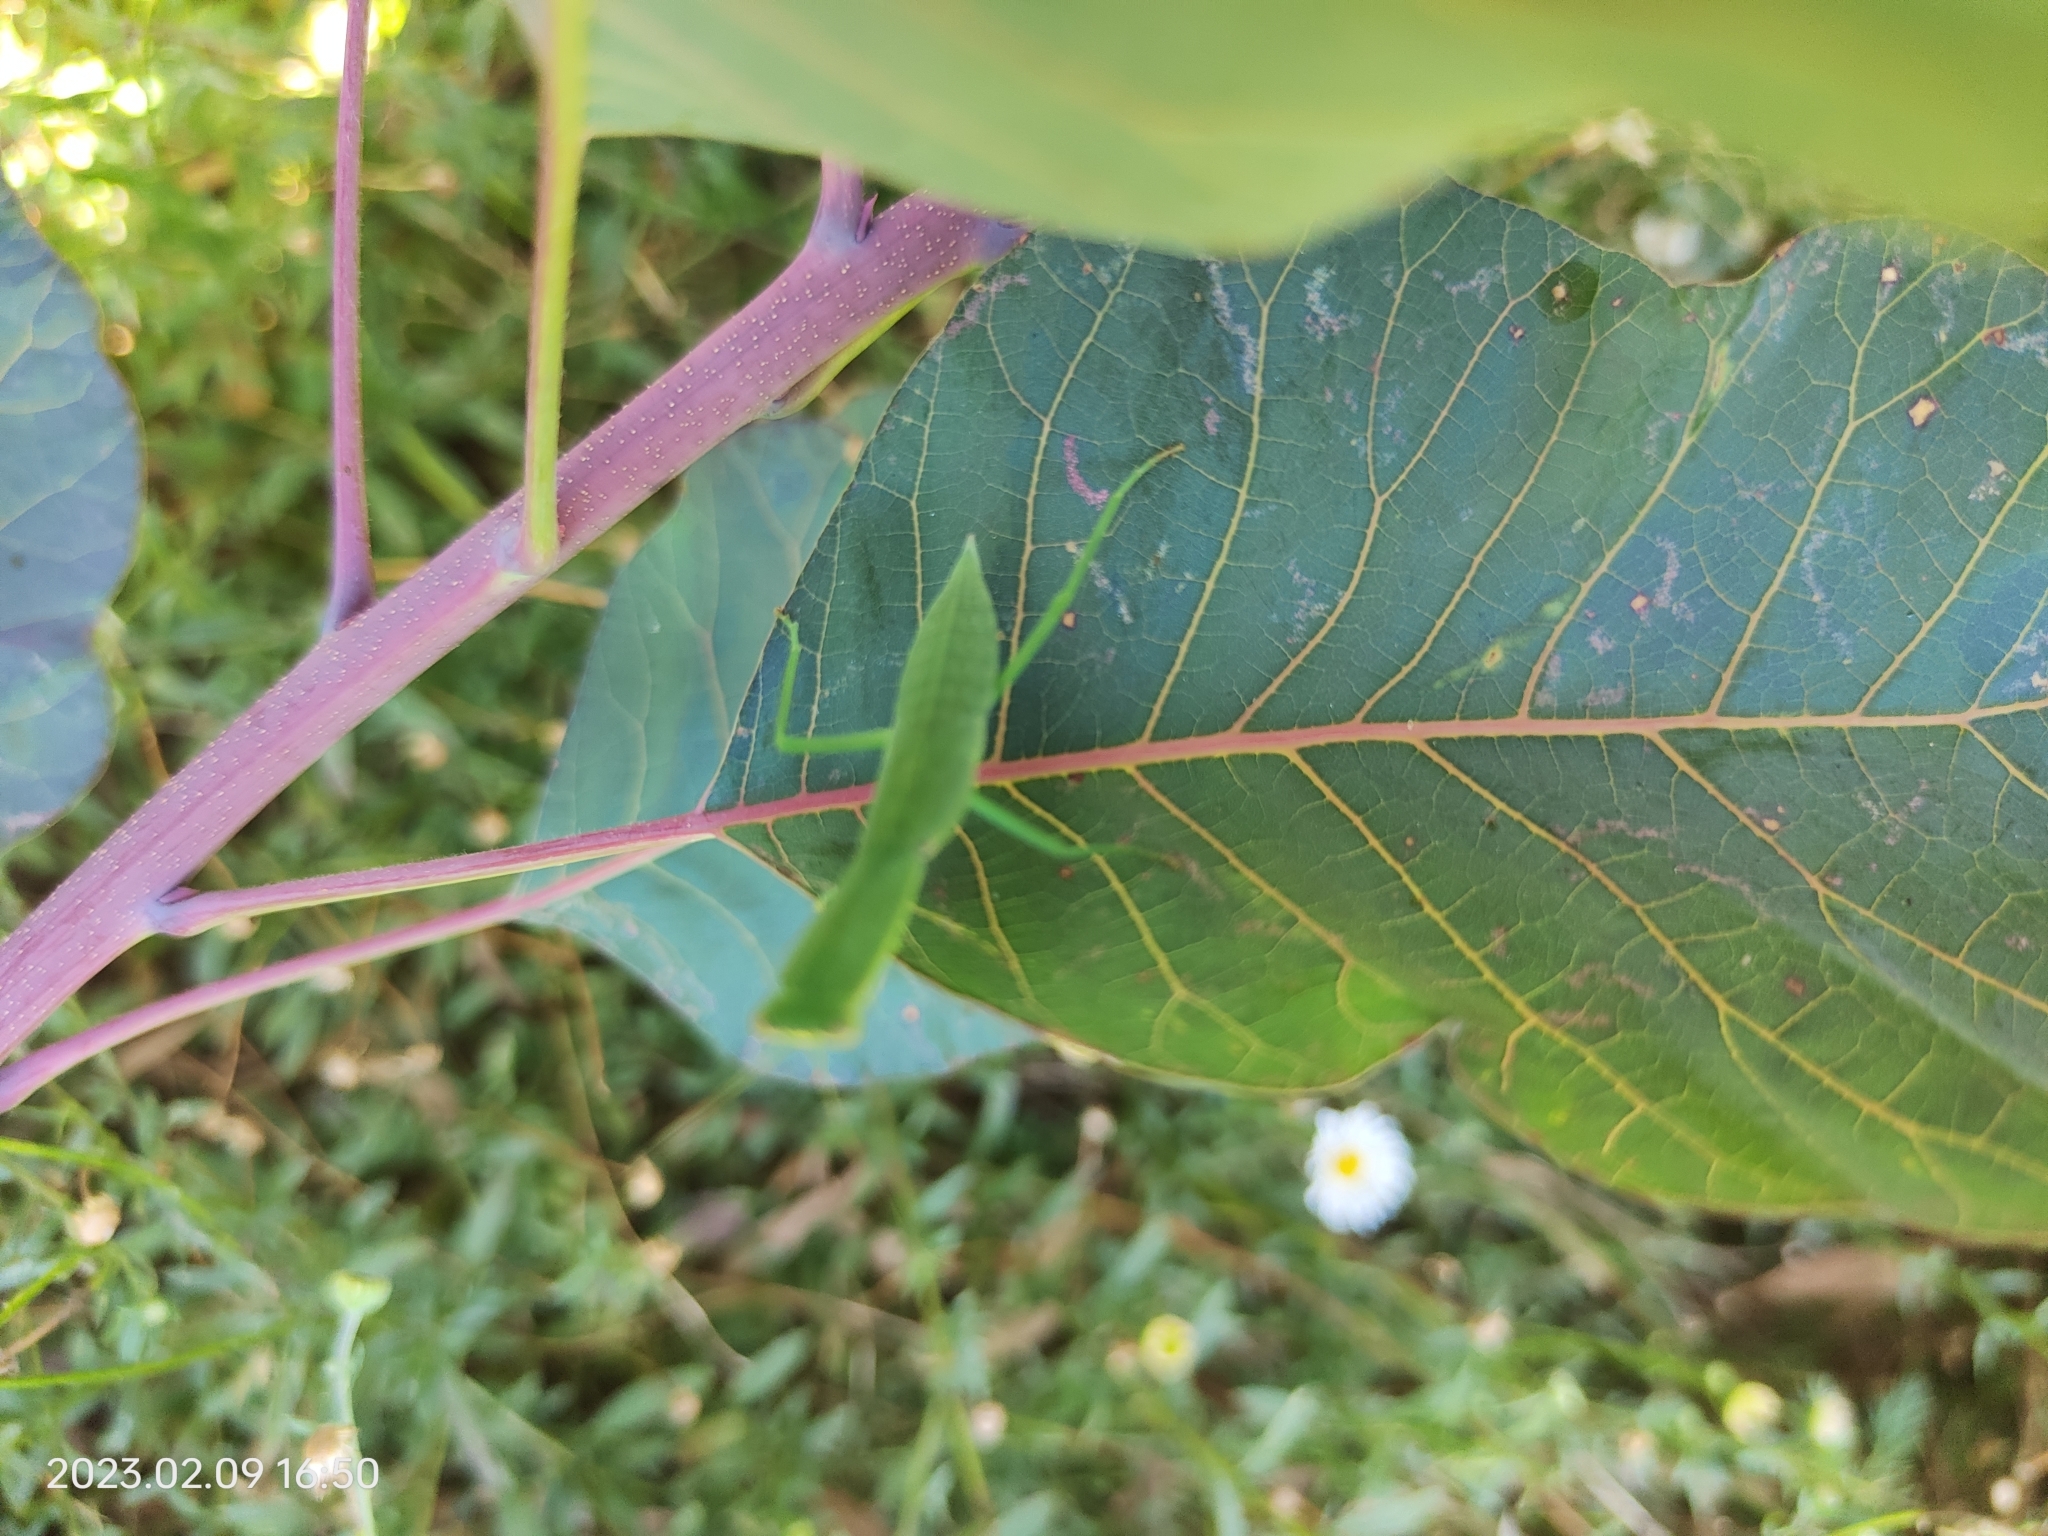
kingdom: Animalia
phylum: Arthropoda
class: Insecta
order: Mantodea
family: Mantidae
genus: Orthodera
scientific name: Orthodera ministralis
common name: Mantis
